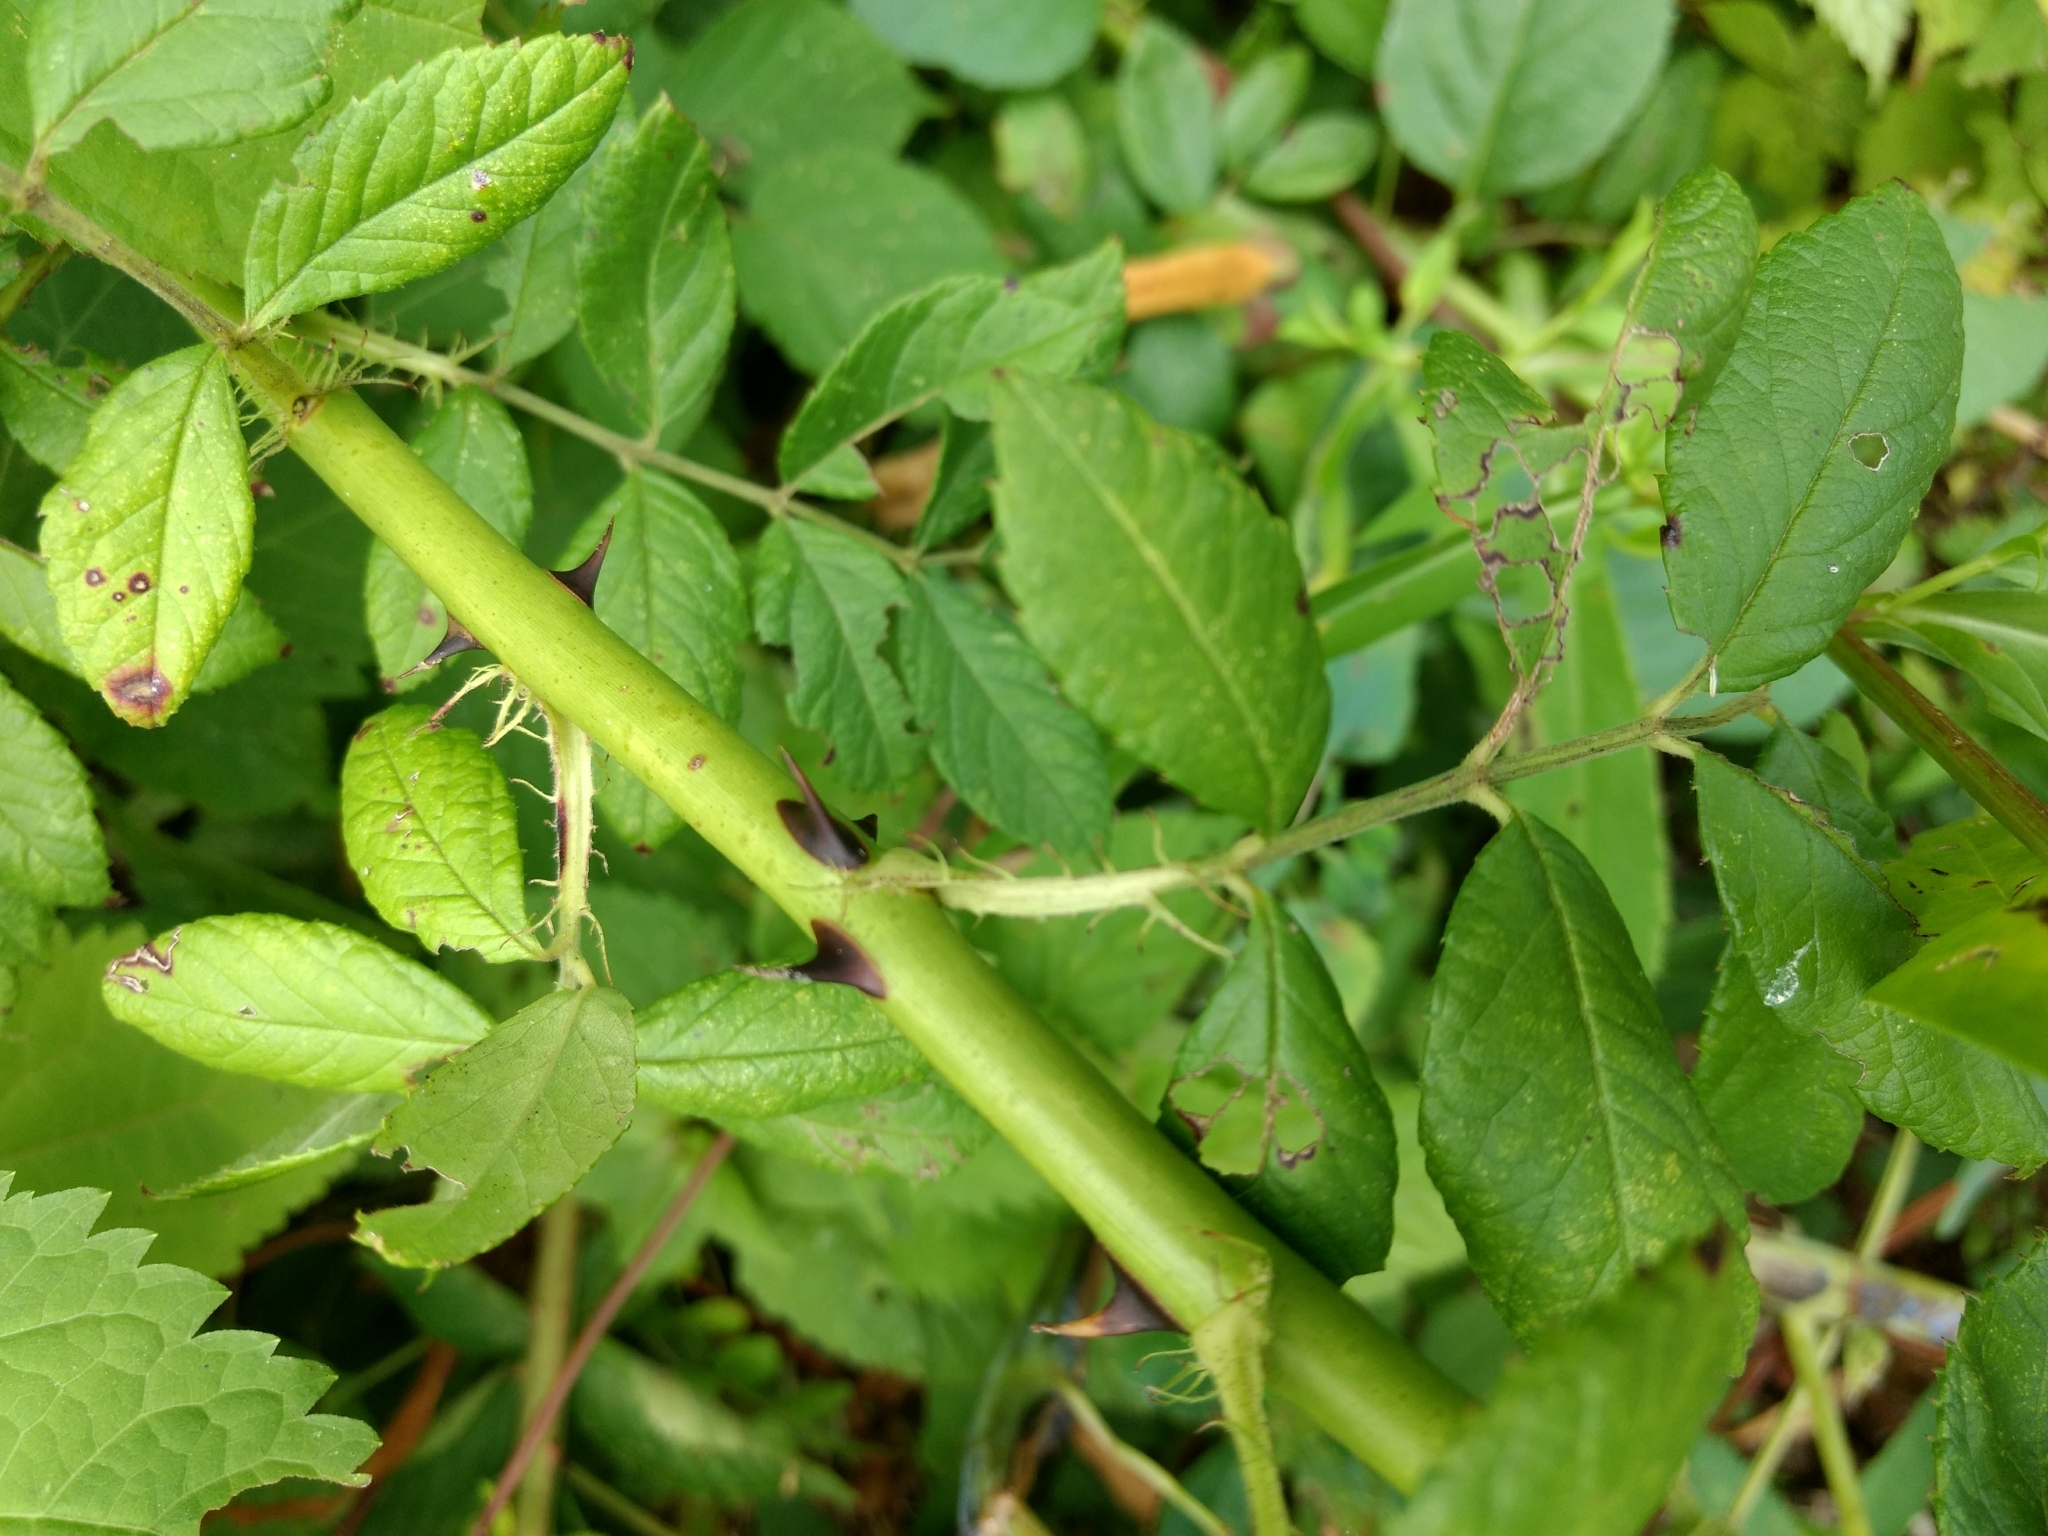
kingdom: Plantae
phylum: Tracheophyta
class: Magnoliopsida
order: Rosales
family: Rosaceae
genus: Rosa
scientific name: Rosa multiflora
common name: Multiflora rose
